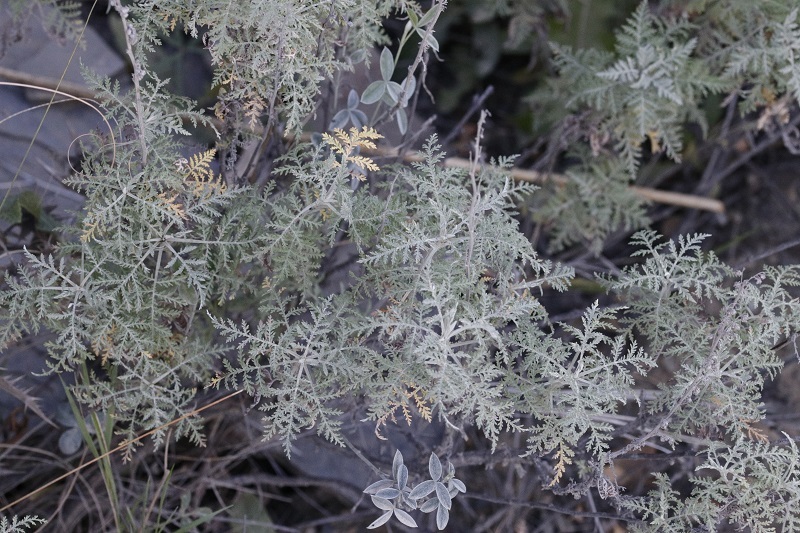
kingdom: Plantae
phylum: Tracheophyta
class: Magnoliopsida
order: Asterales
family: Asteraceae
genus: Artemisia
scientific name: Artemisia afra
